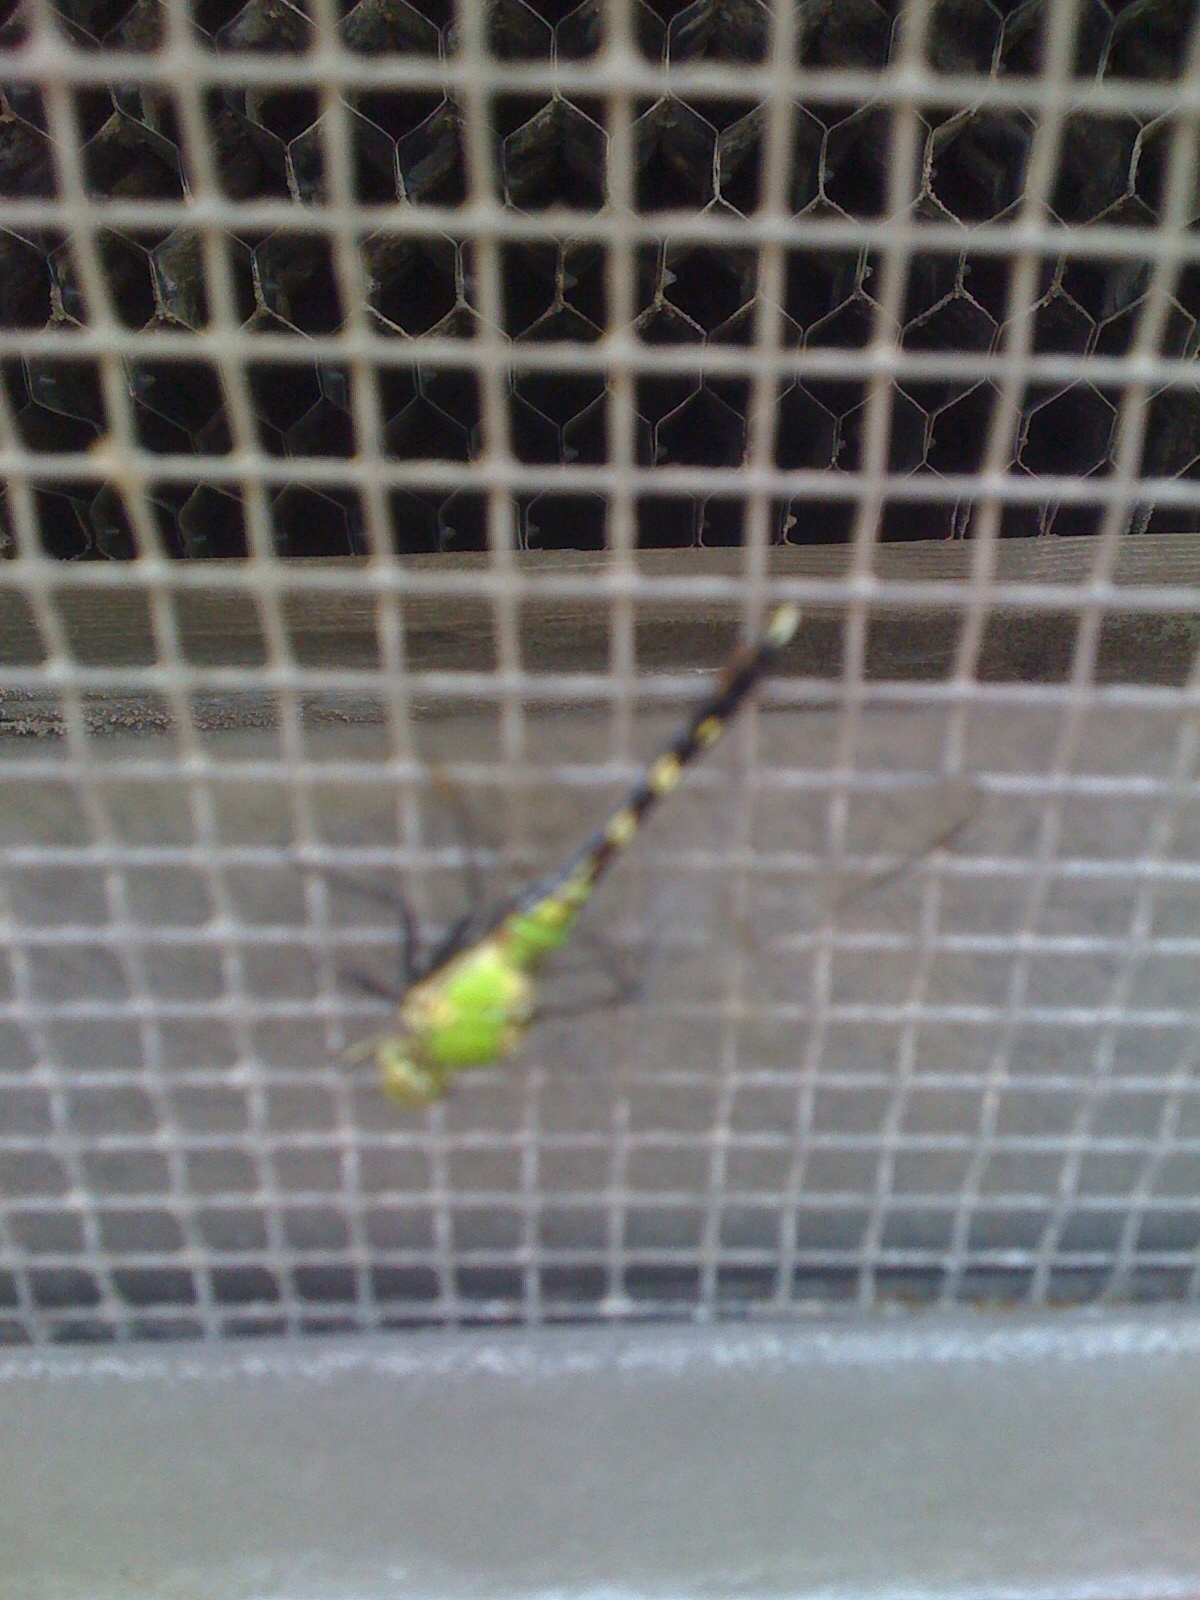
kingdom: Animalia
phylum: Arthropoda
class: Insecta
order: Odonata
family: Libellulidae
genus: Erythemis
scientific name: Erythemis simplicicollis
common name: Eastern pondhawk
